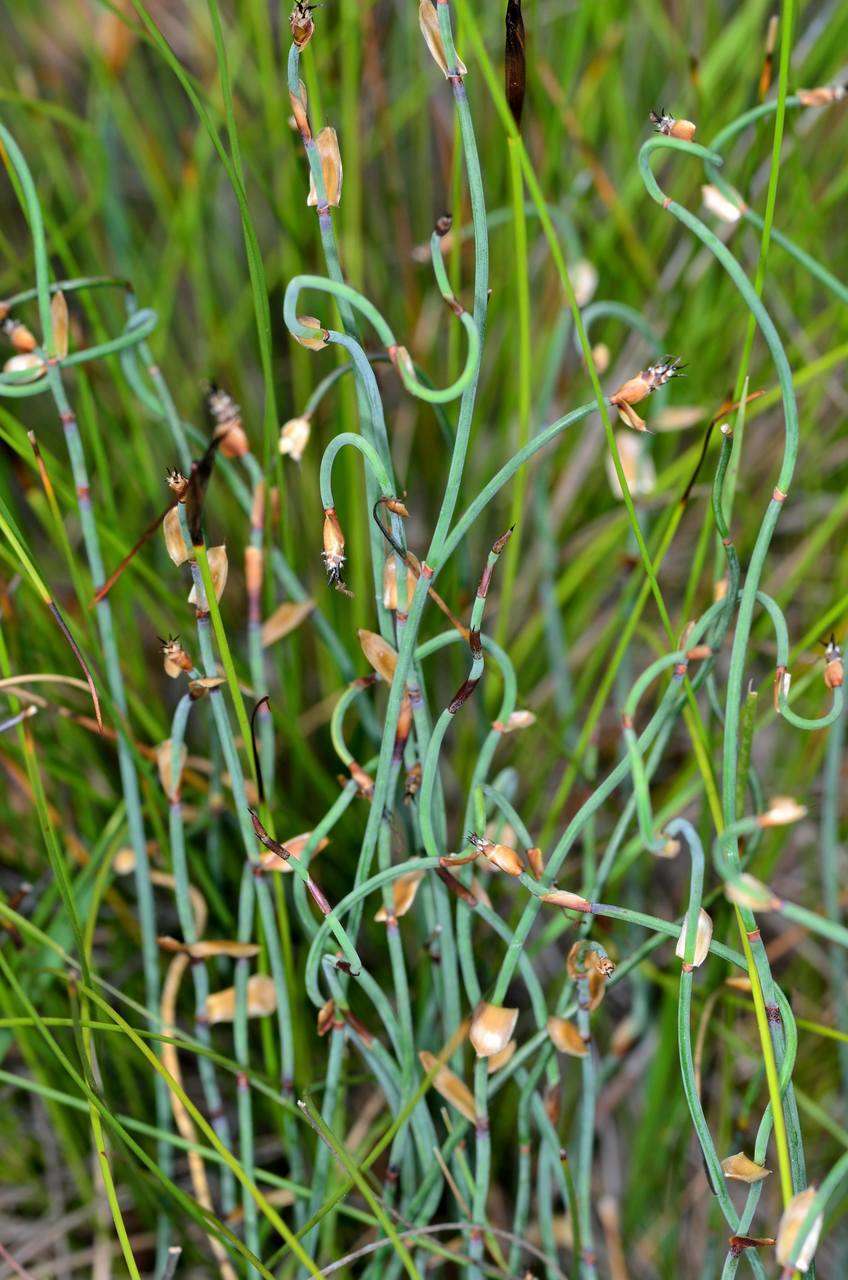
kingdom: Plantae
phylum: Tracheophyta
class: Liliopsida
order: Poales
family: Restionaceae
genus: Lepidobolus
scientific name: Lepidobolus drapetocoleus
